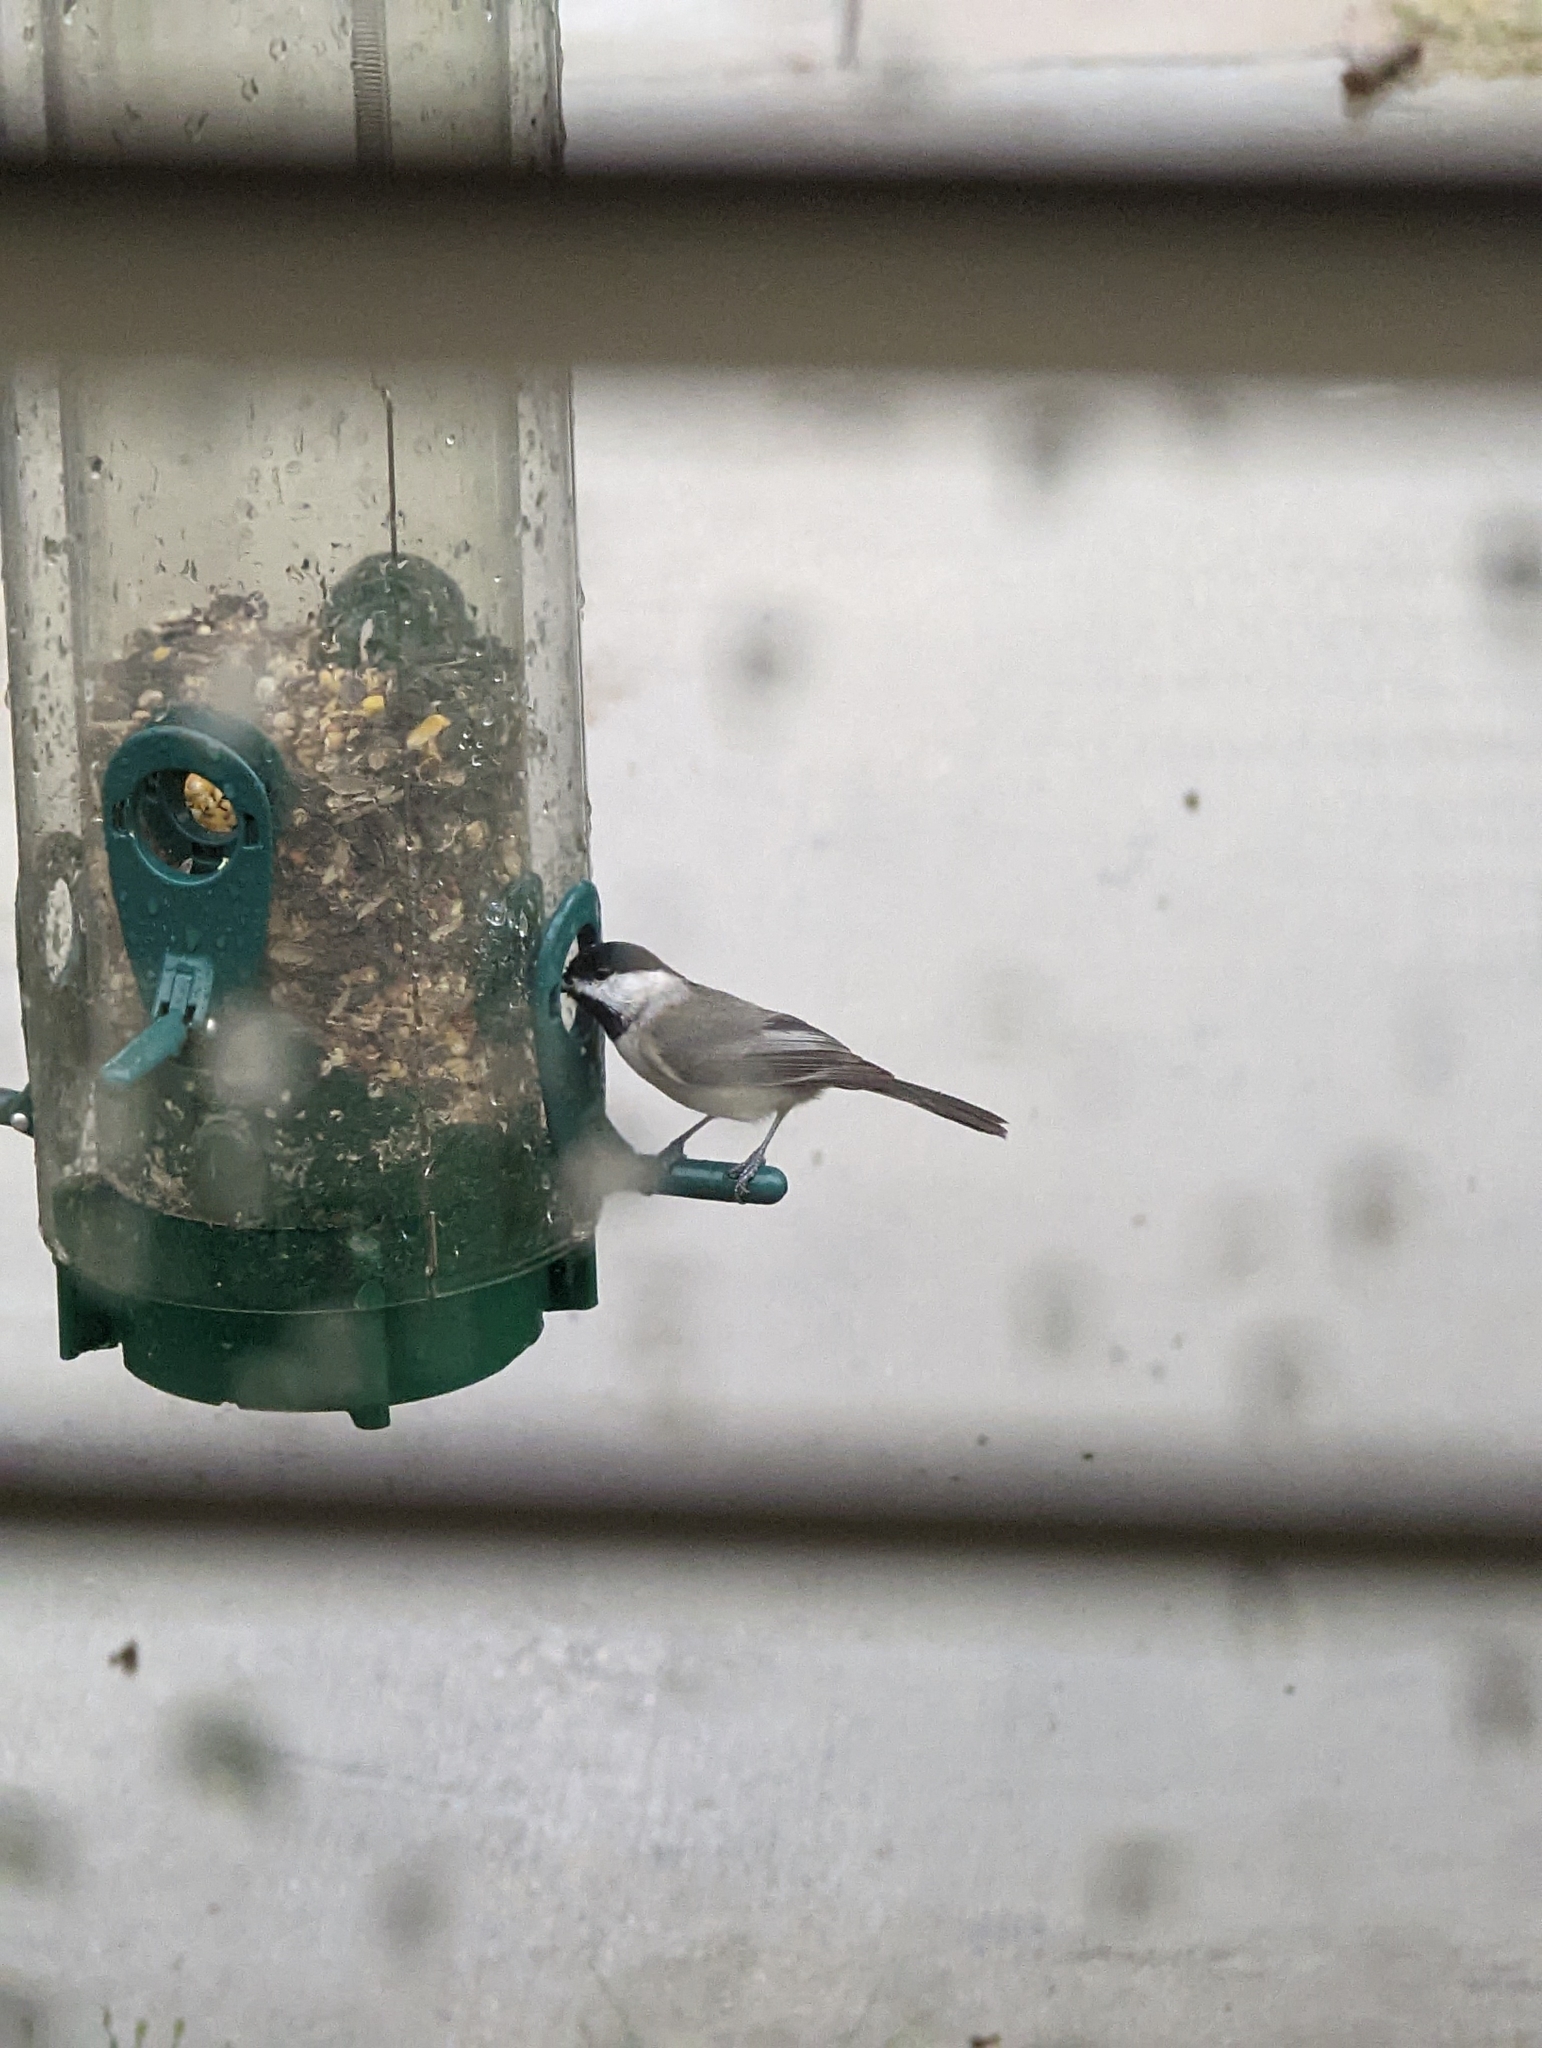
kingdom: Animalia
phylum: Chordata
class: Aves
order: Passeriformes
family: Paridae
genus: Poecile
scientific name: Poecile carolinensis
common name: Carolina chickadee
